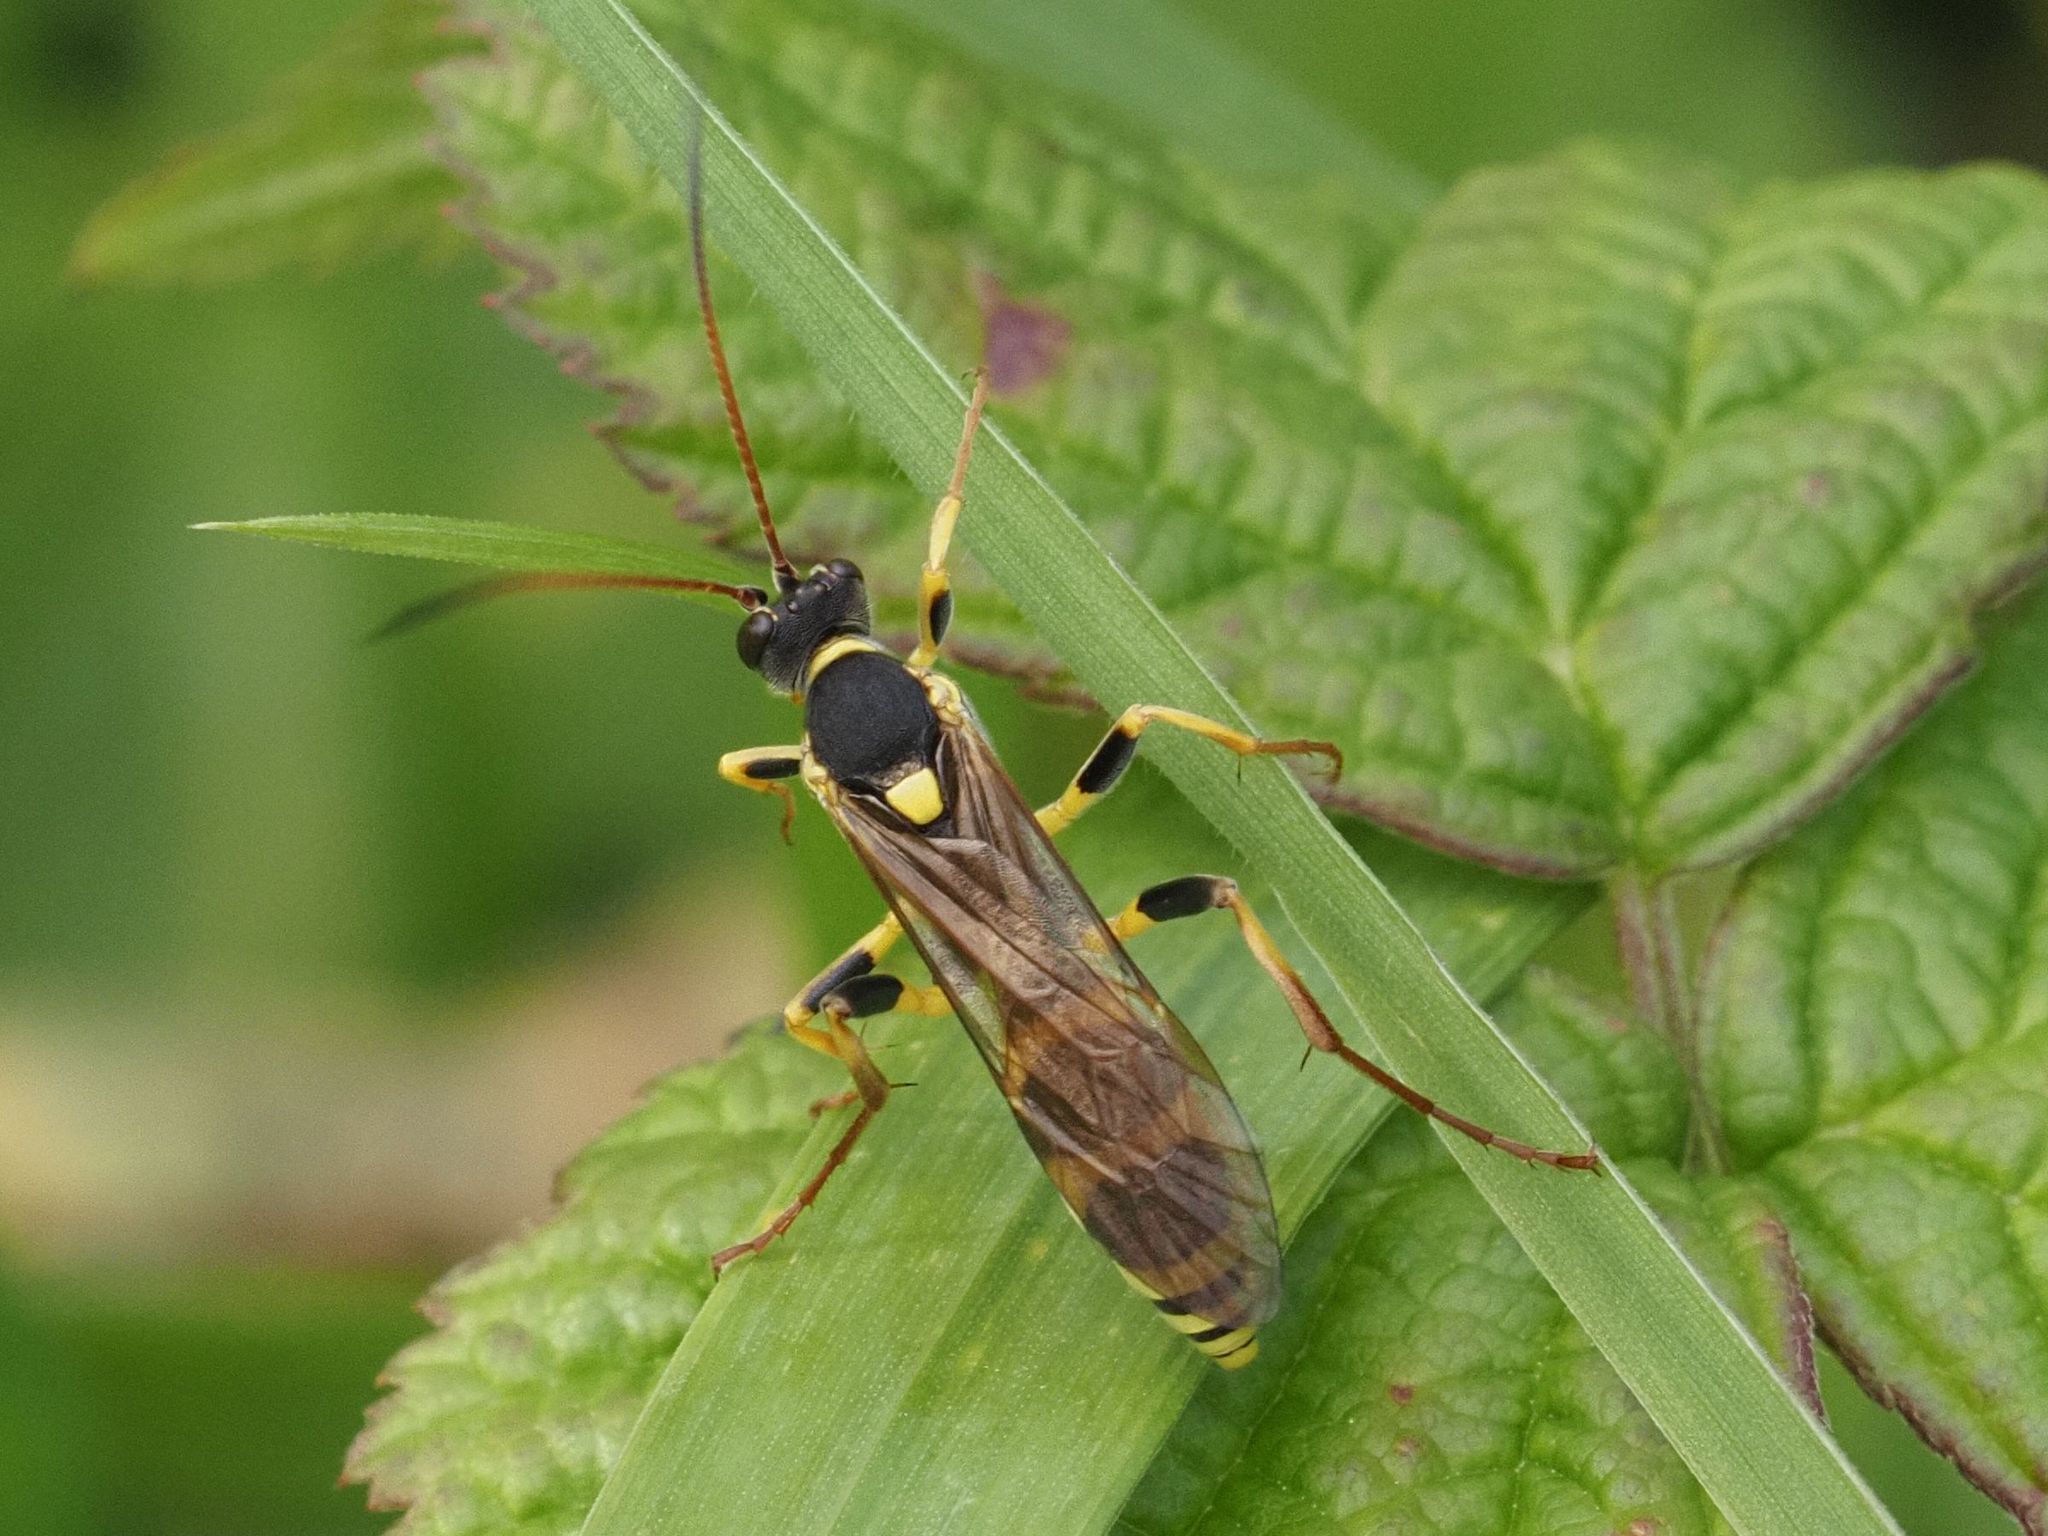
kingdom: Animalia
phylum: Arthropoda
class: Insecta
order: Hymenoptera
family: Ichneumonidae
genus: Amblyteles
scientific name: Amblyteles armatorius
